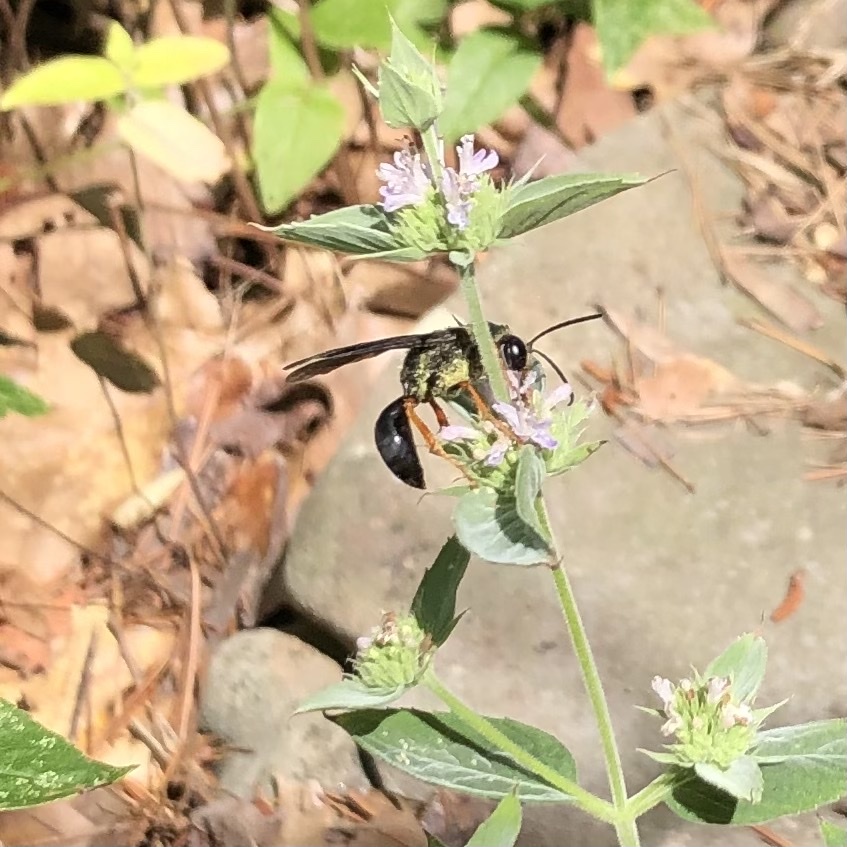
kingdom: Animalia
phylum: Arthropoda
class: Insecta
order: Hymenoptera
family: Sphecidae
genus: Sphex
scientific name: Sphex nudus
